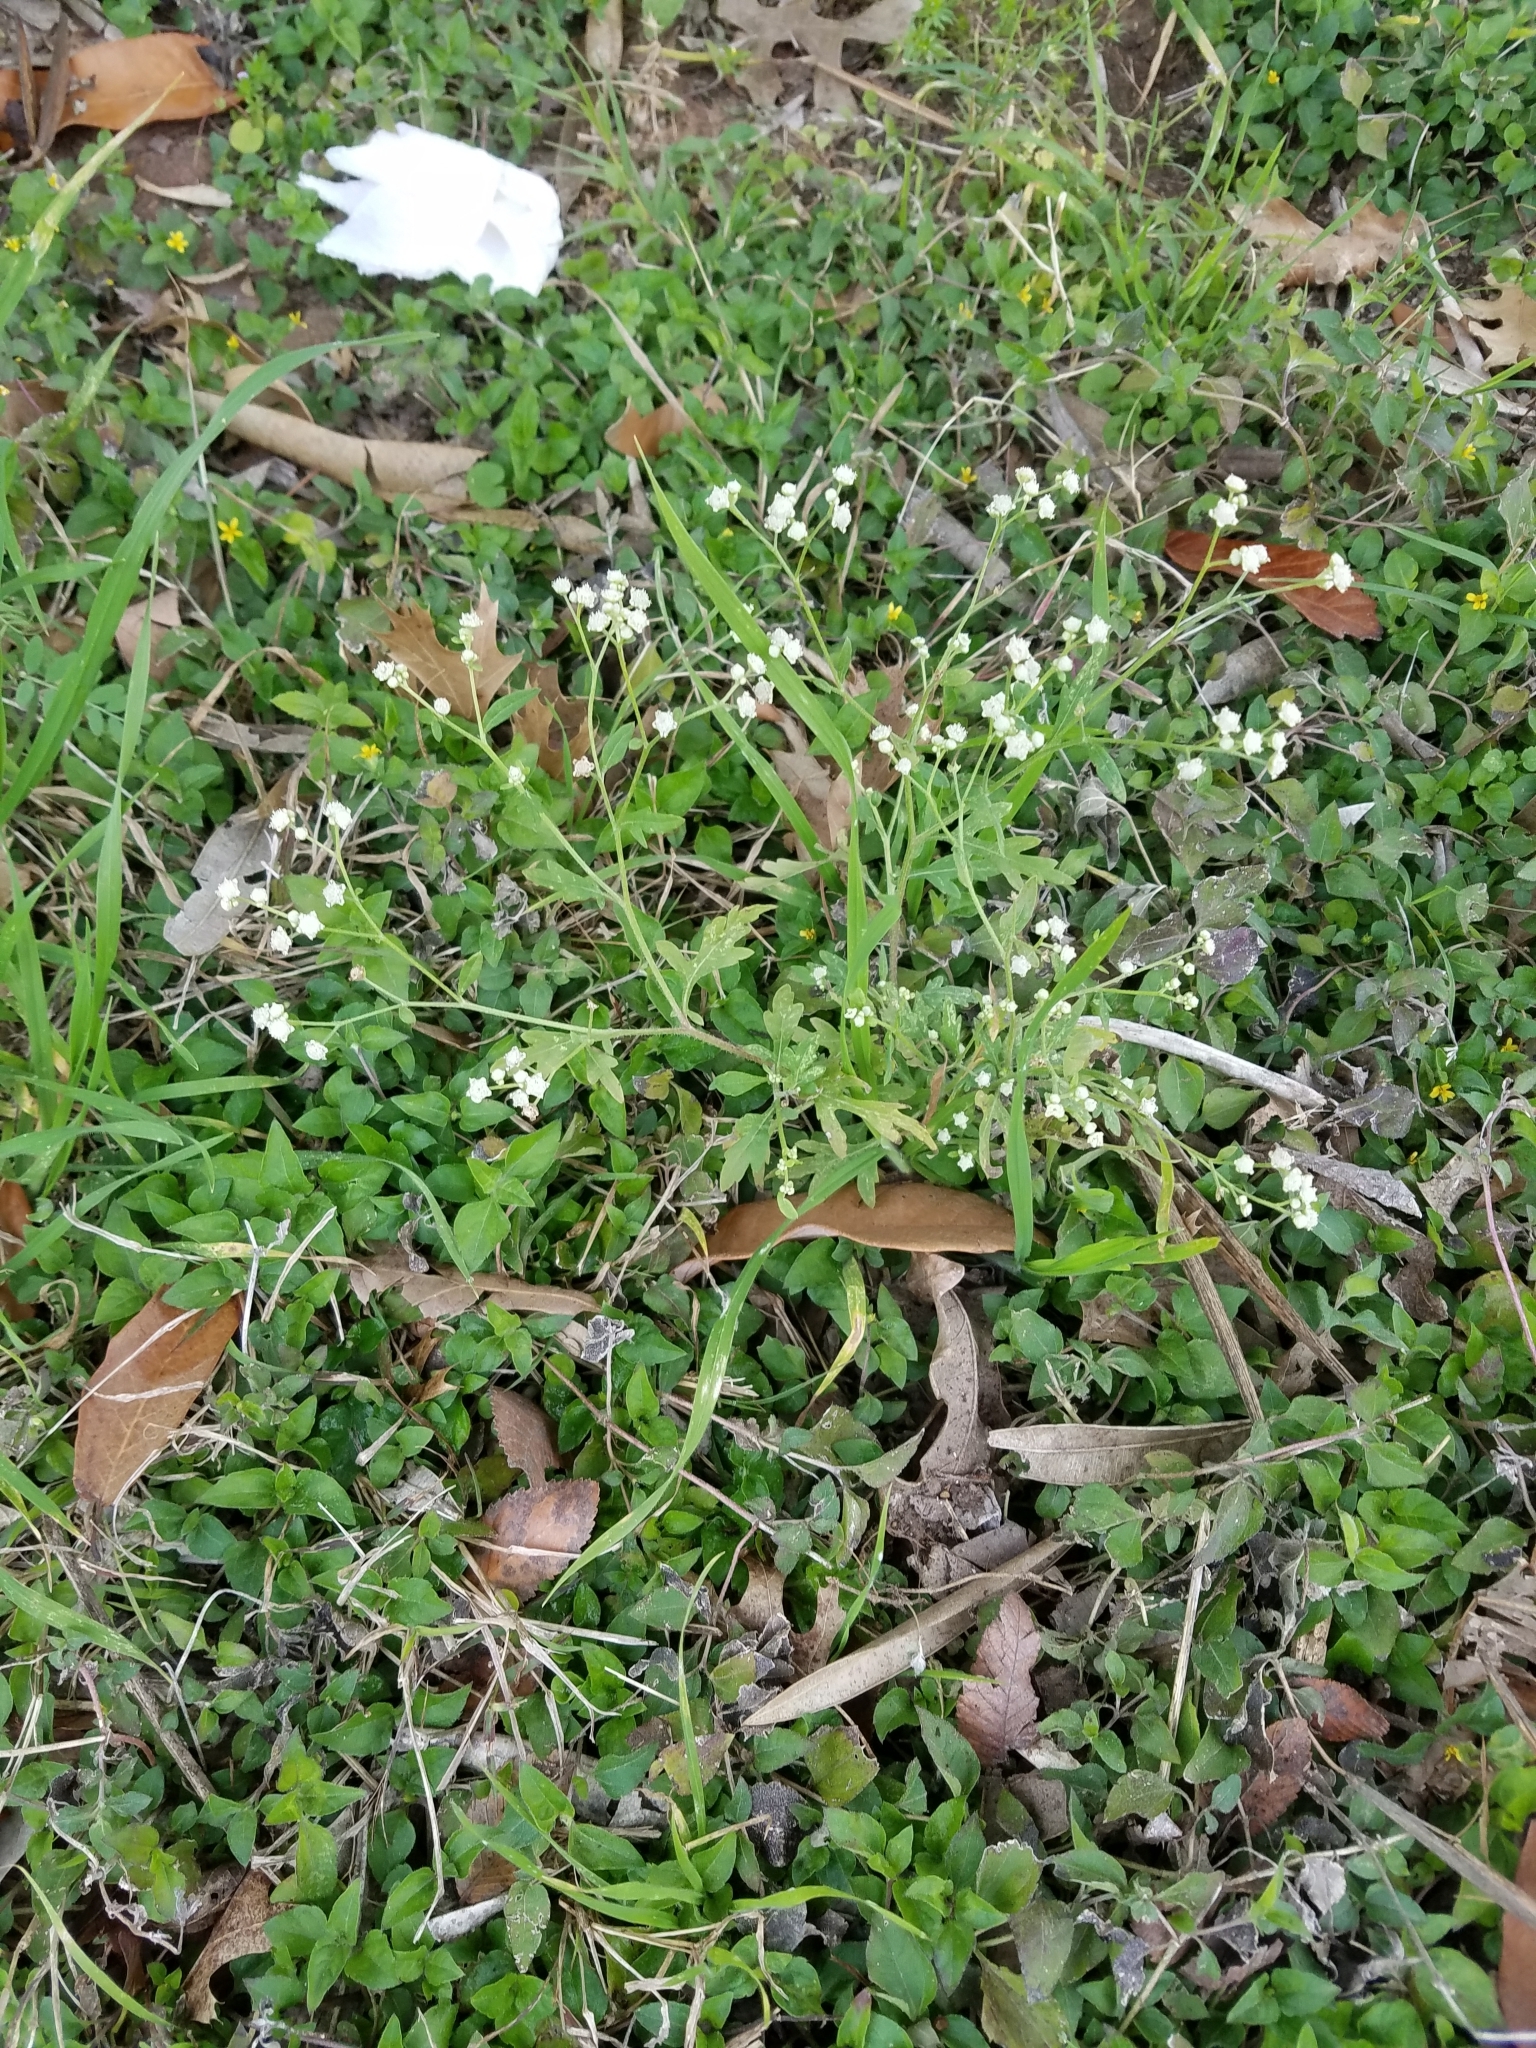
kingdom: Plantae
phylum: Tracheophyta
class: Magnoliopsida
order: Asterales
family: Asteraceae
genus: Parthenium
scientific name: Parthenium hysterophorus
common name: Santa maria feverfew
